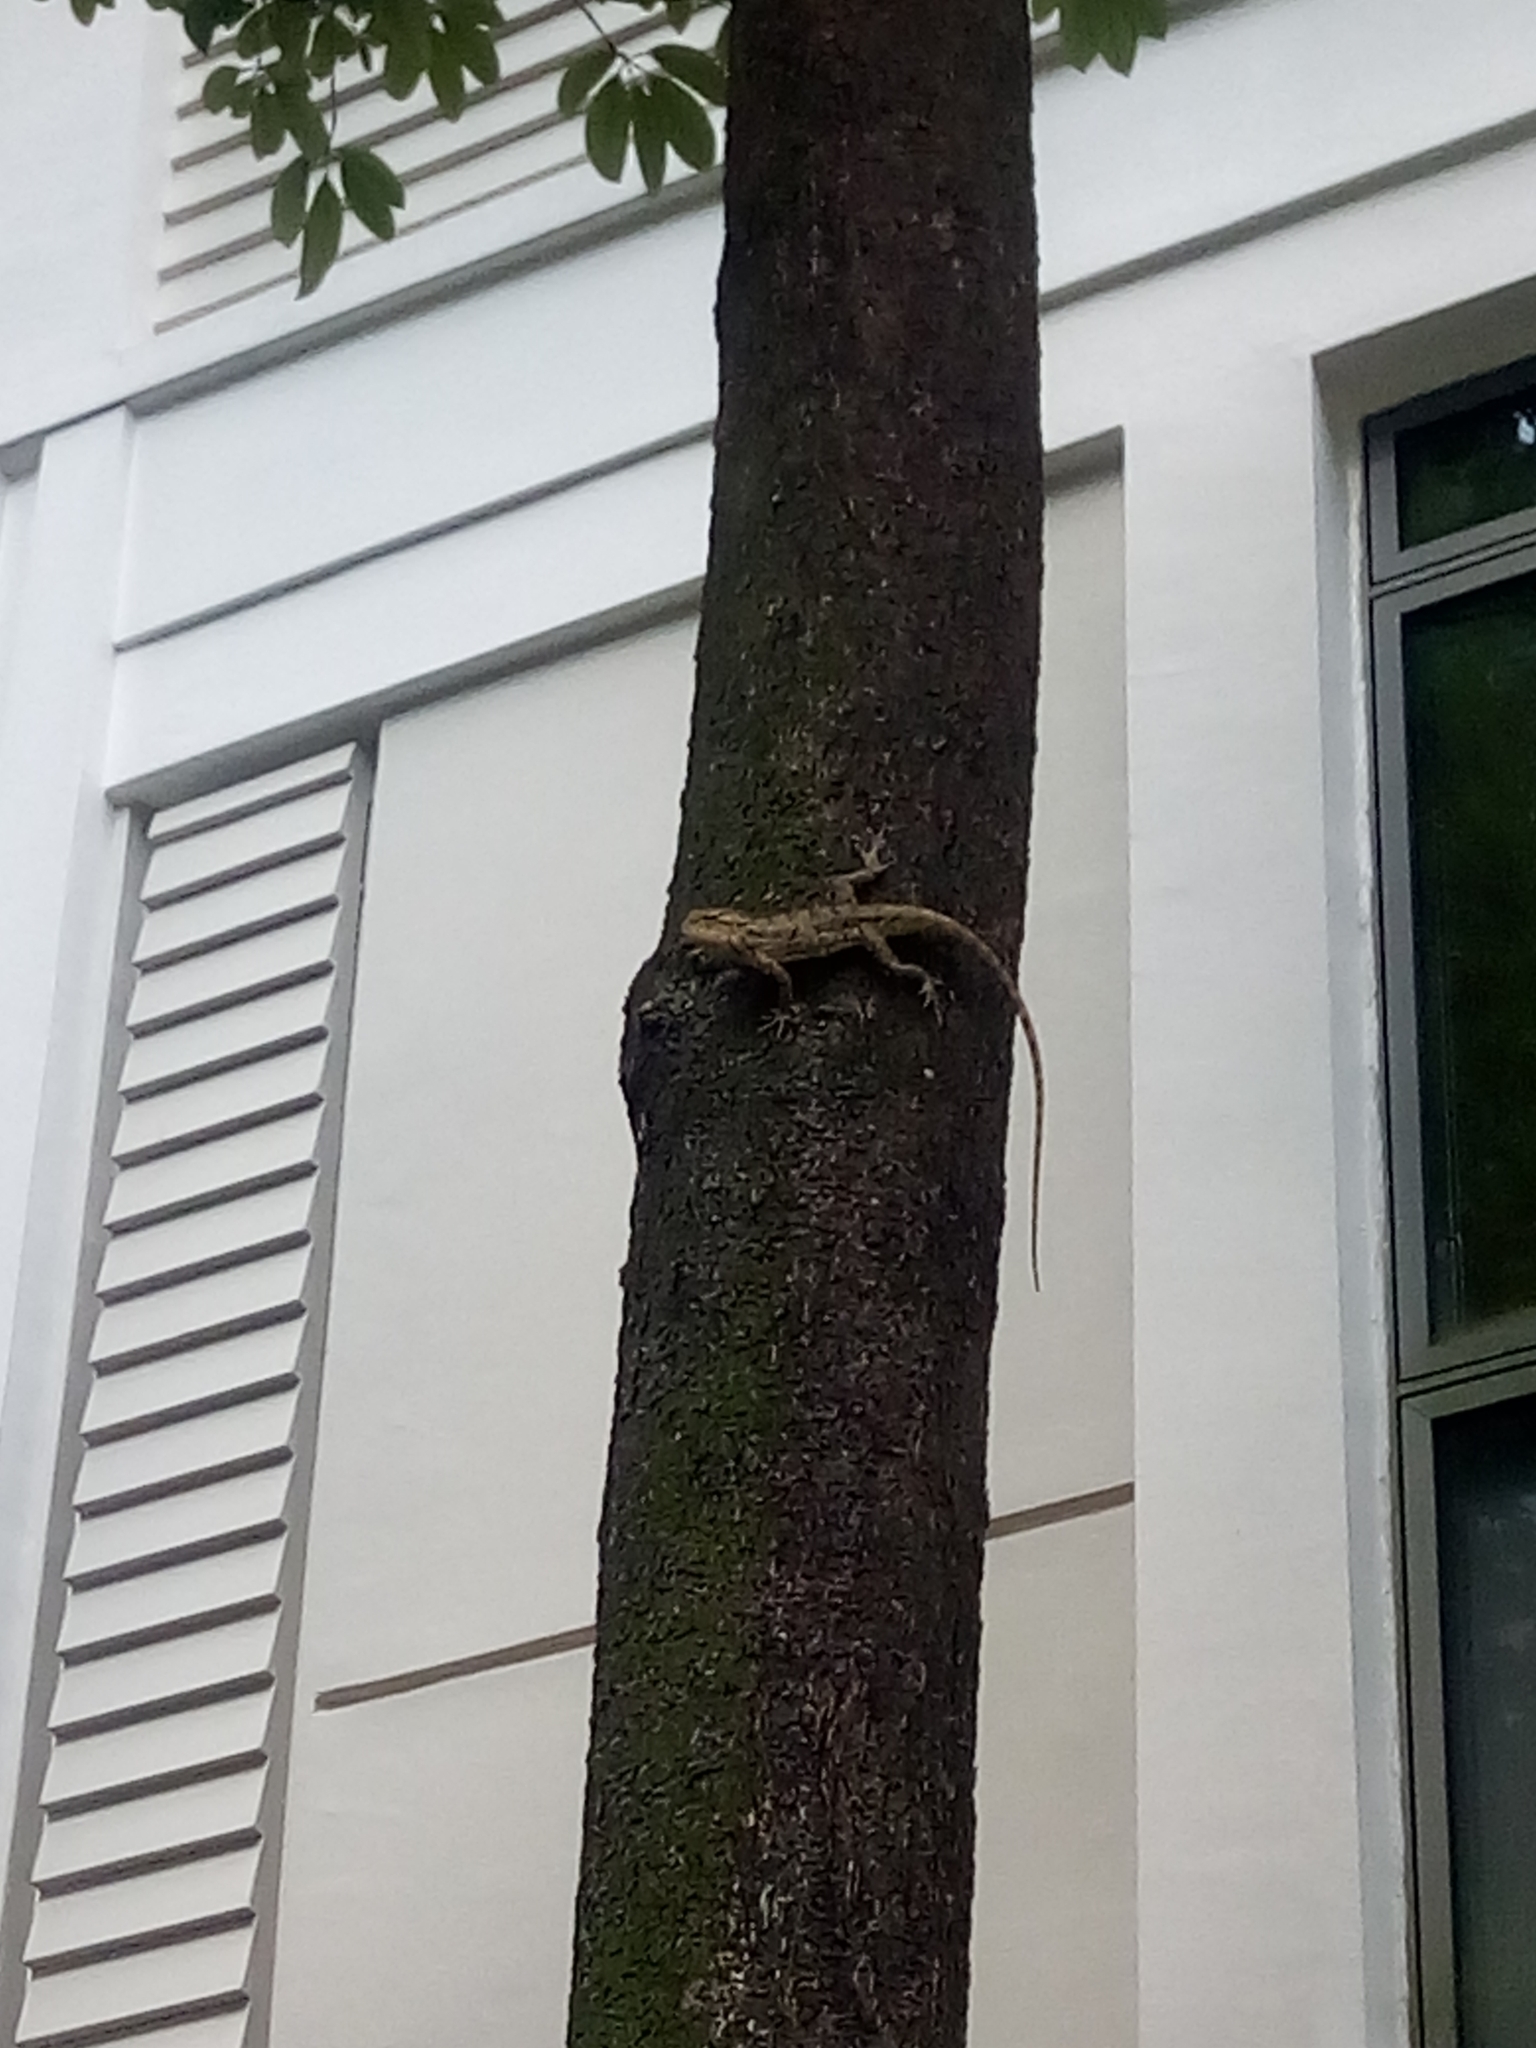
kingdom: Animalia
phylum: Chordata
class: Squamata
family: Agamidae
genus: Calotes
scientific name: Calotes versicolor
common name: Oriental garden lizard
